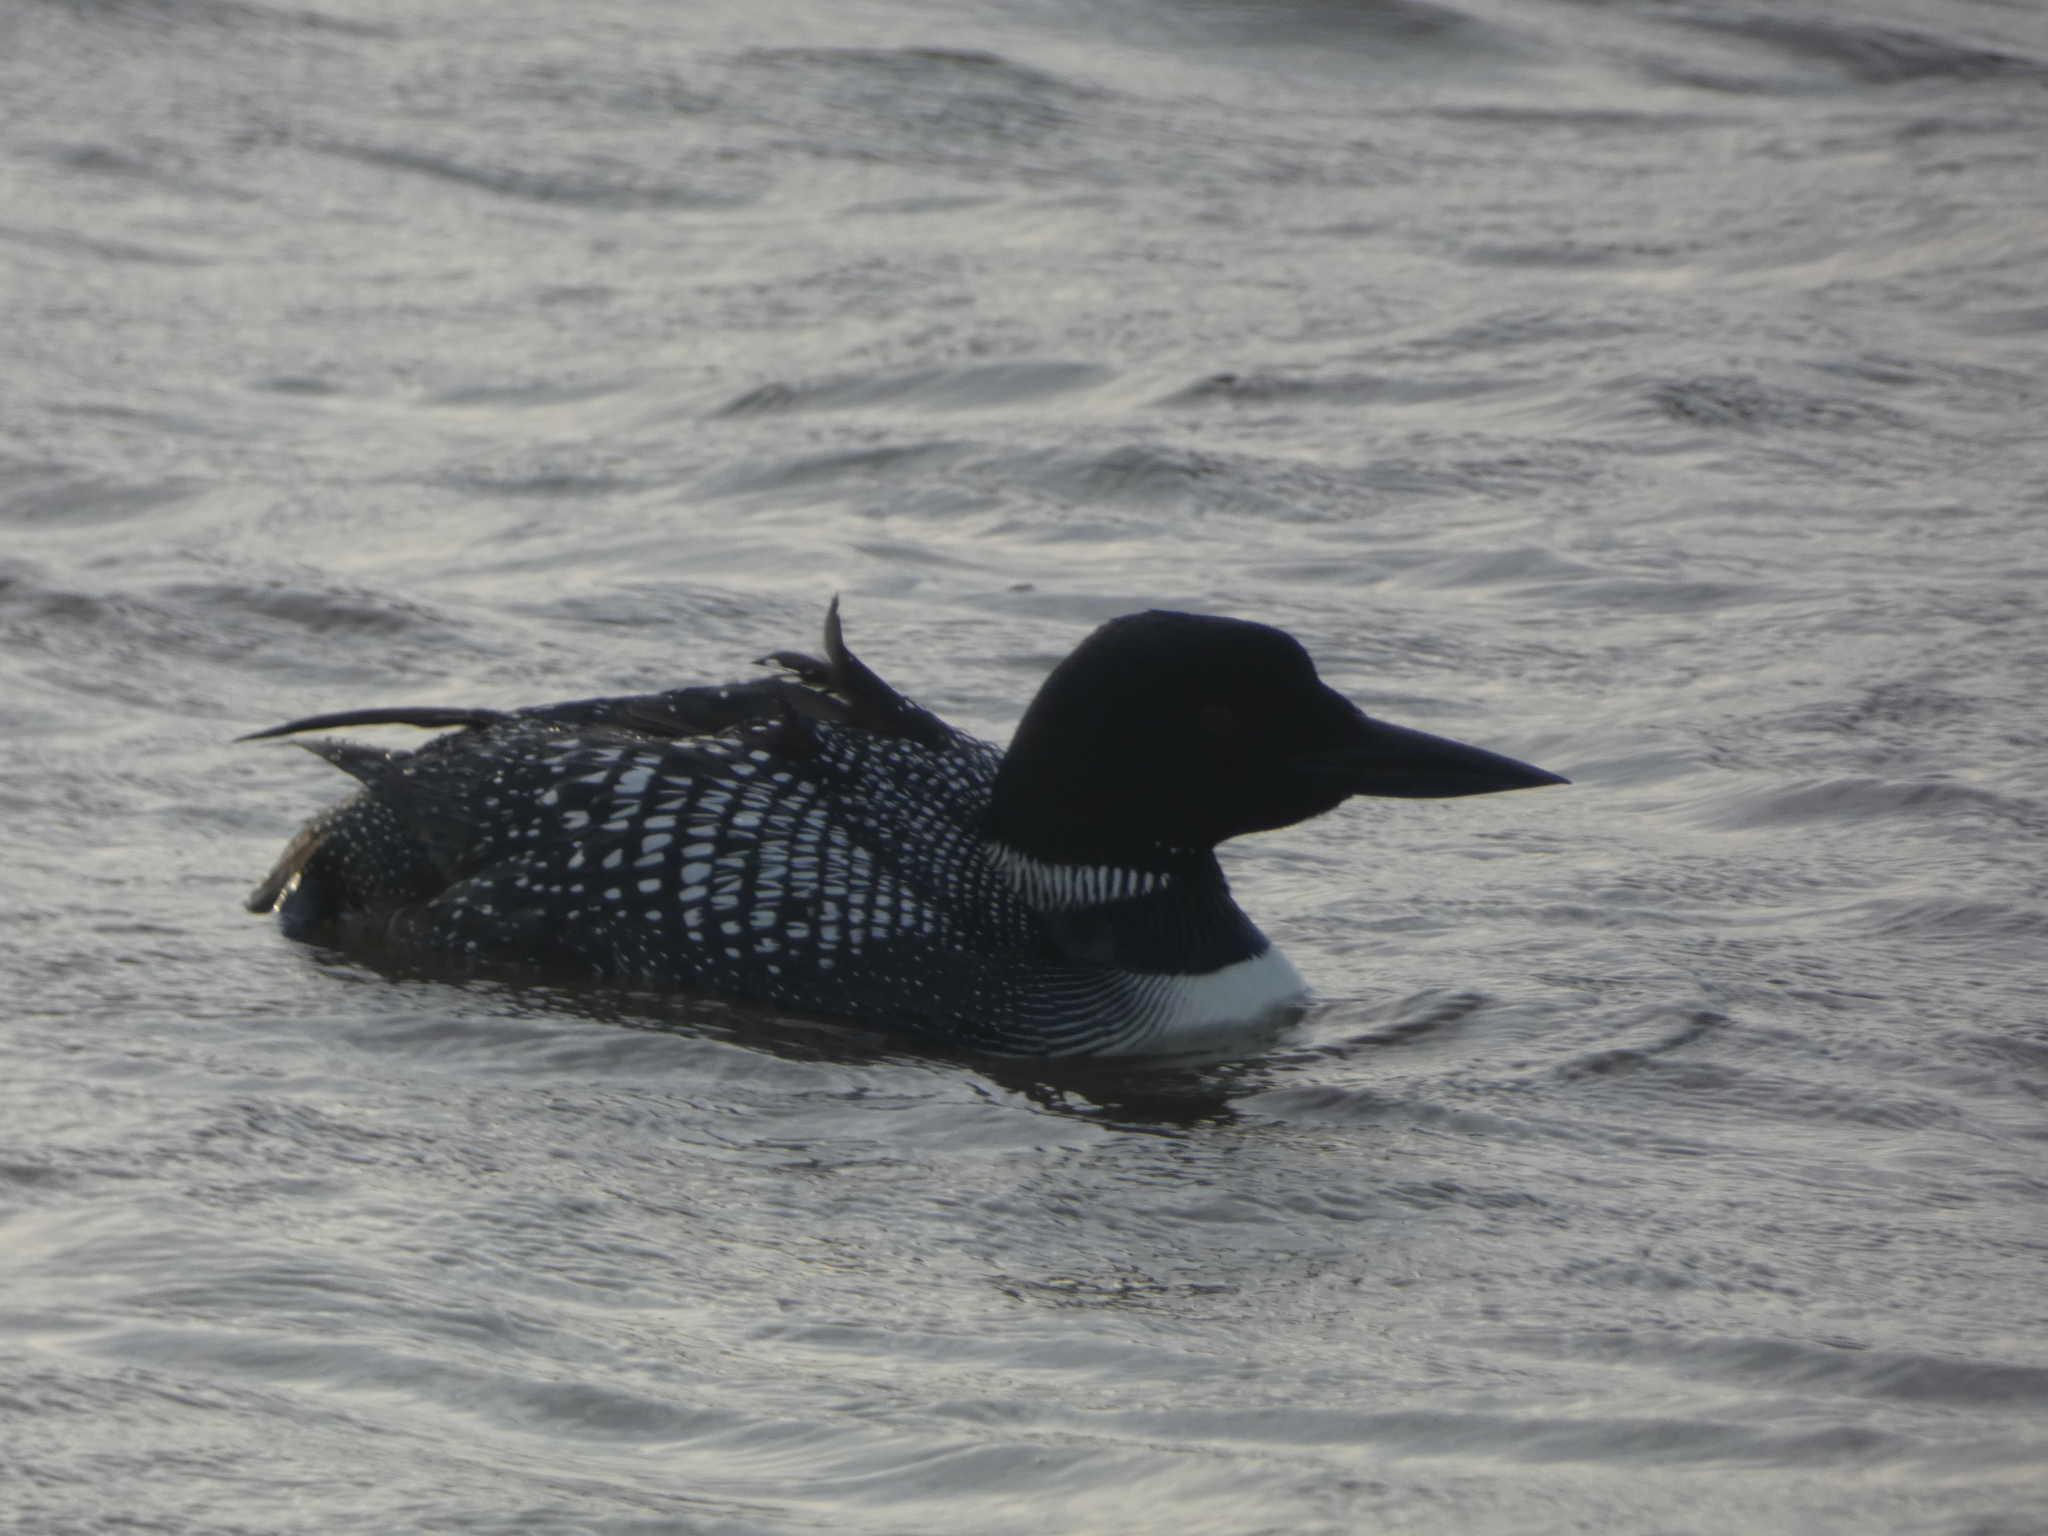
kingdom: Animalia
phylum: Chordata
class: Aves
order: Gaviiformes
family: Gaviidae
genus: Gavia
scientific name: Gavia immer
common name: Common loon
